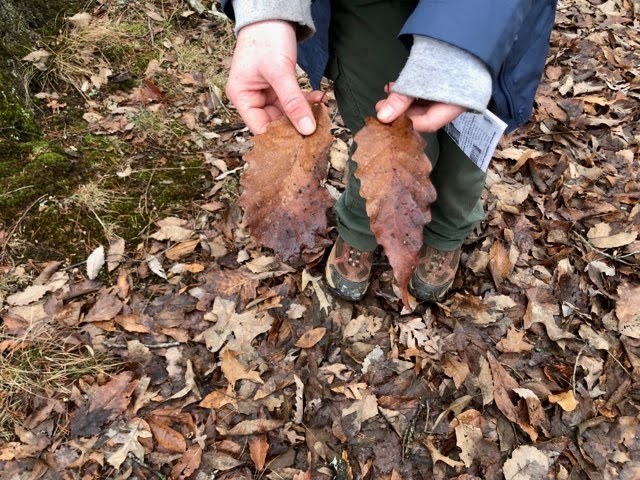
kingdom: Plantae
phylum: Tracheophyta
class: Magnoliopsida
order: Fagales
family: Fagaceae
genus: Quercus
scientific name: Quercus montana
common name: Chestnut oak
